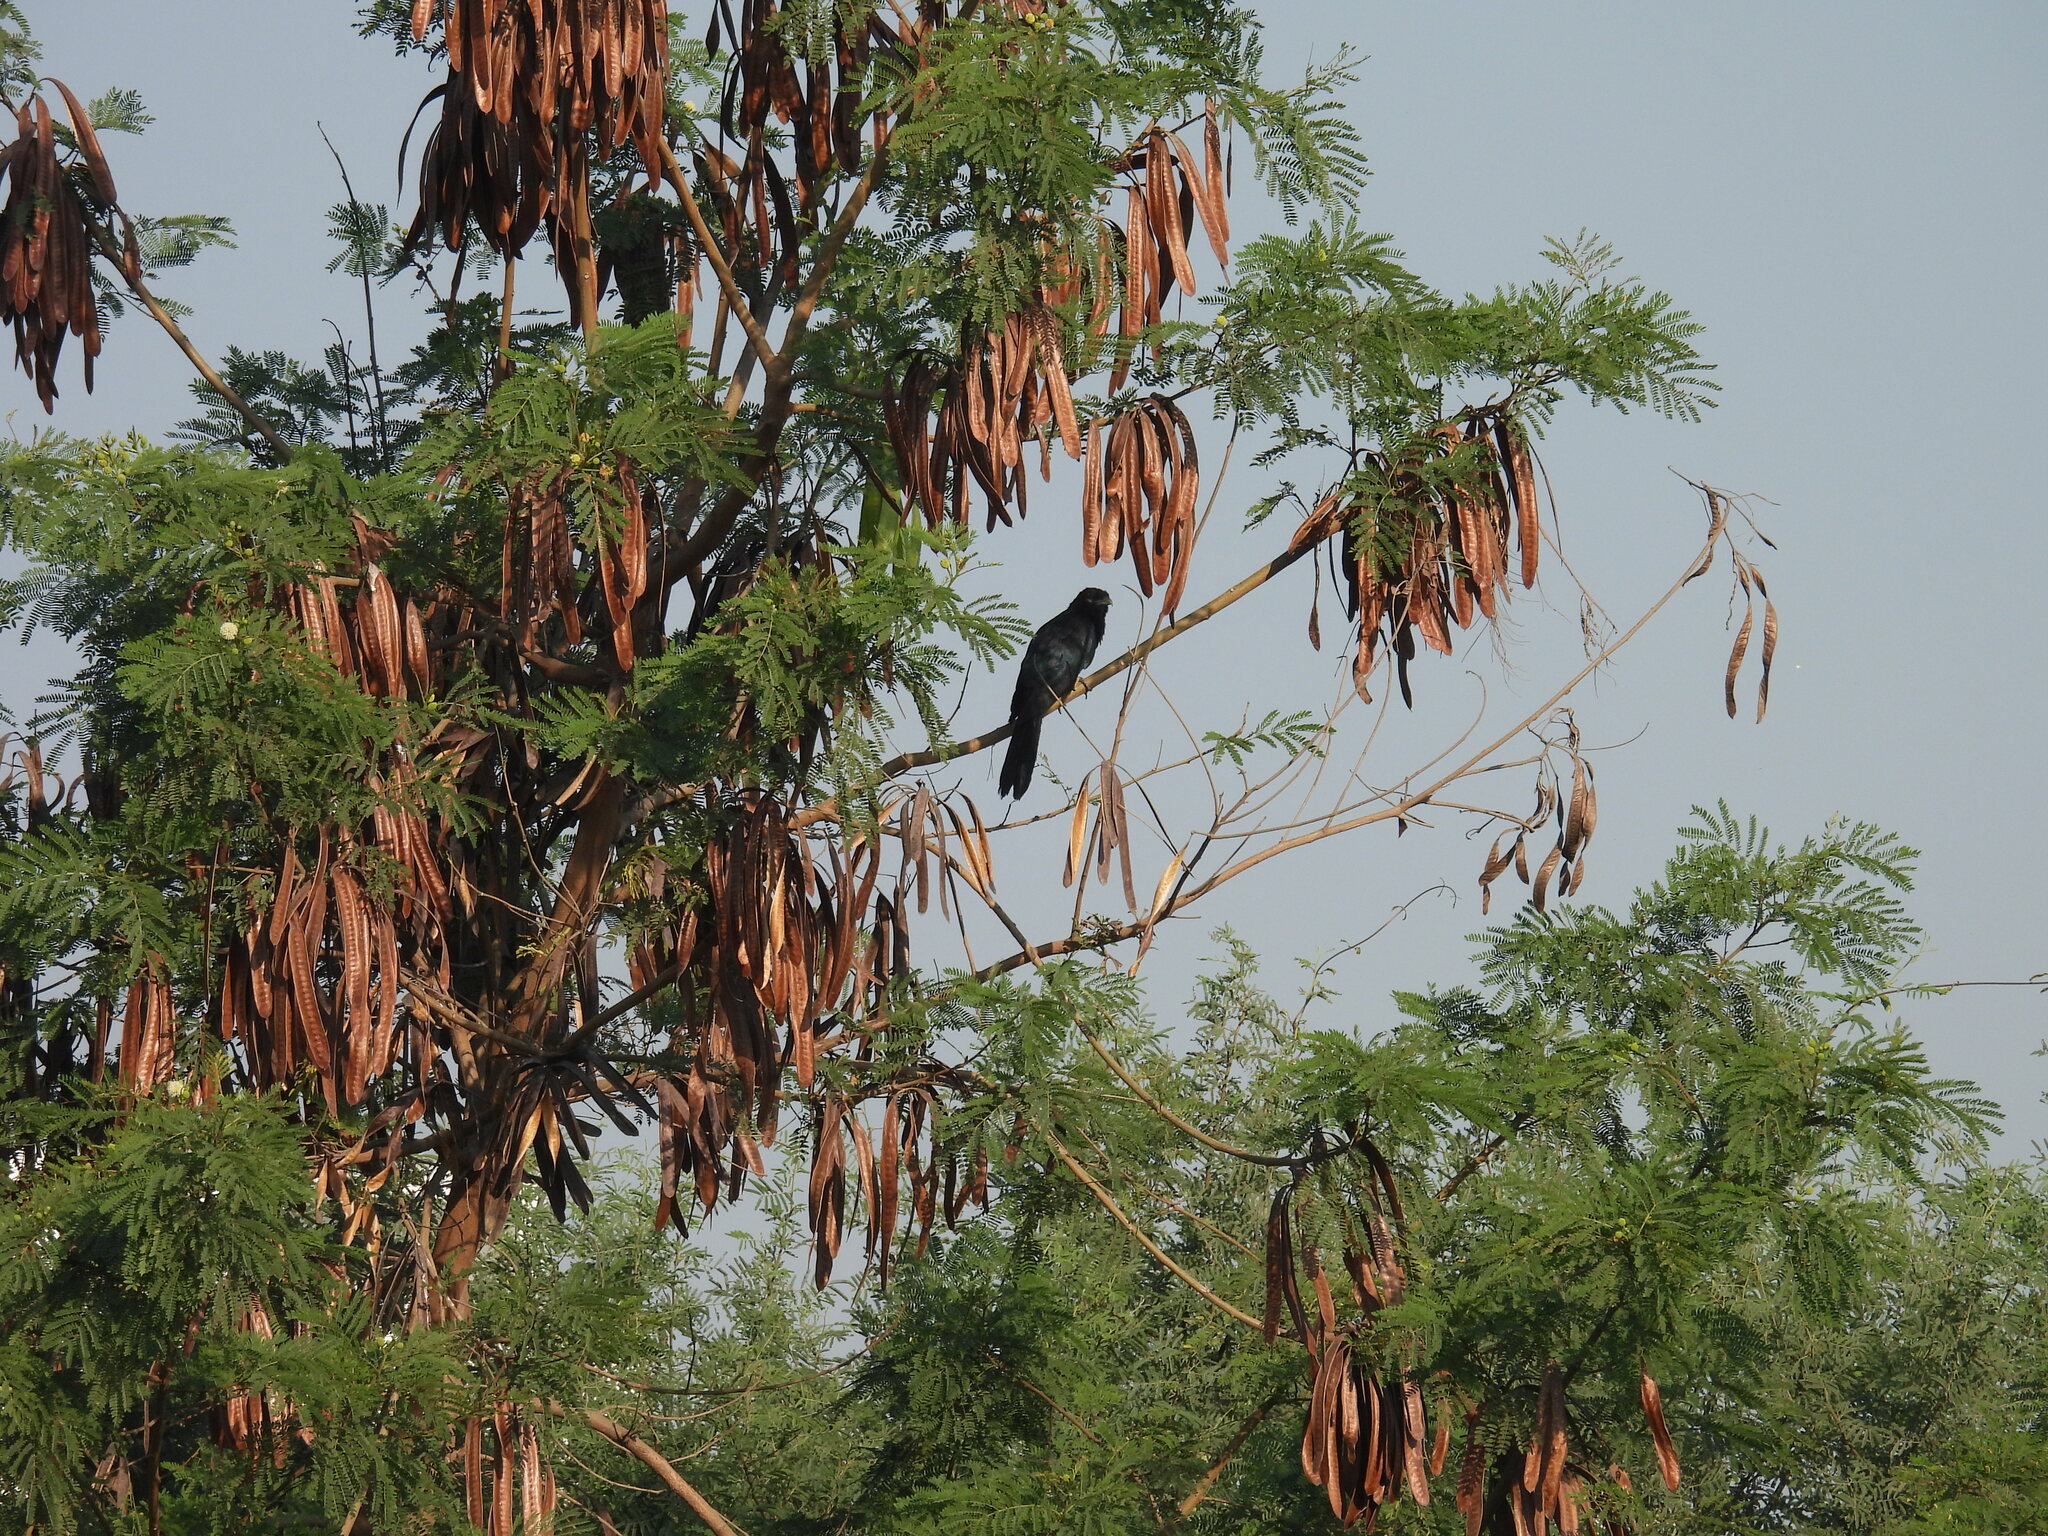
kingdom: Animalia
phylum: Chordata
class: Aves
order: Cuculiformes
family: Cuculidae
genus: Eudynamys
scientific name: Eudynamys scolopaceus
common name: Asian koel
